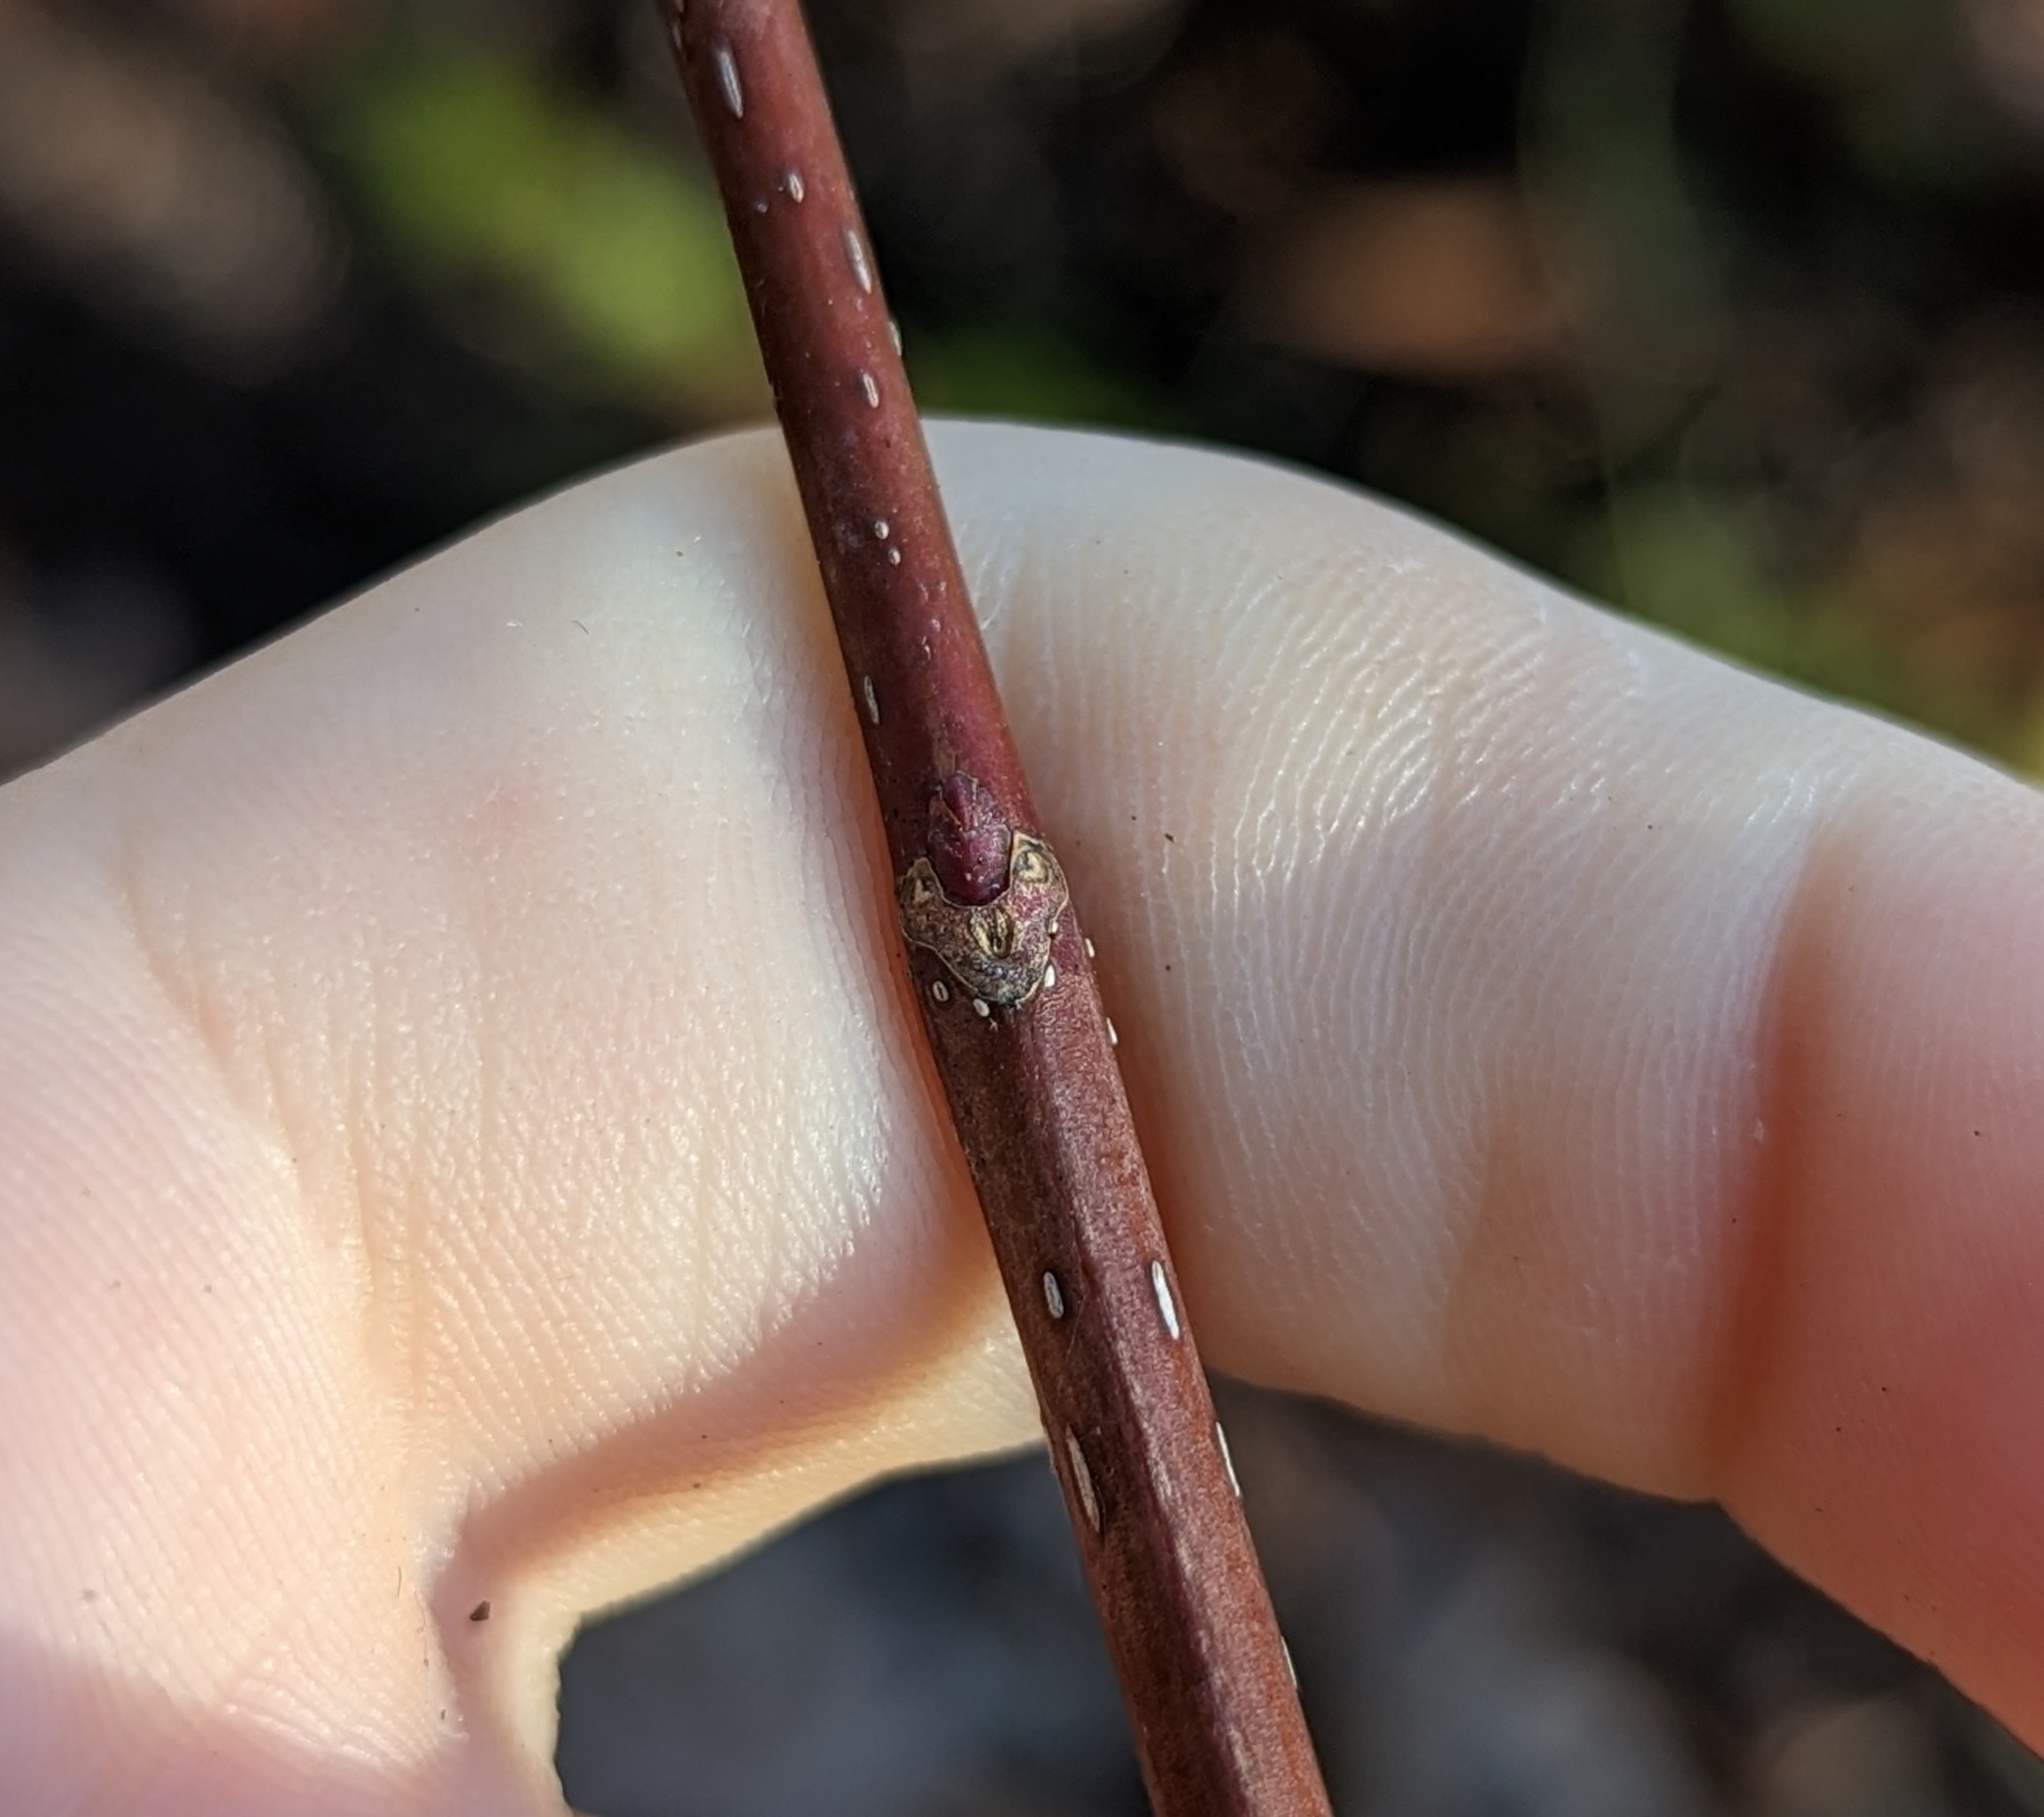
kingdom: Plantae
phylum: Tracheophyta
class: Magnoliopsida
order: Sapindales
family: Sapindaceae
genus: Acer
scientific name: Acer rubrum
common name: Red maple
